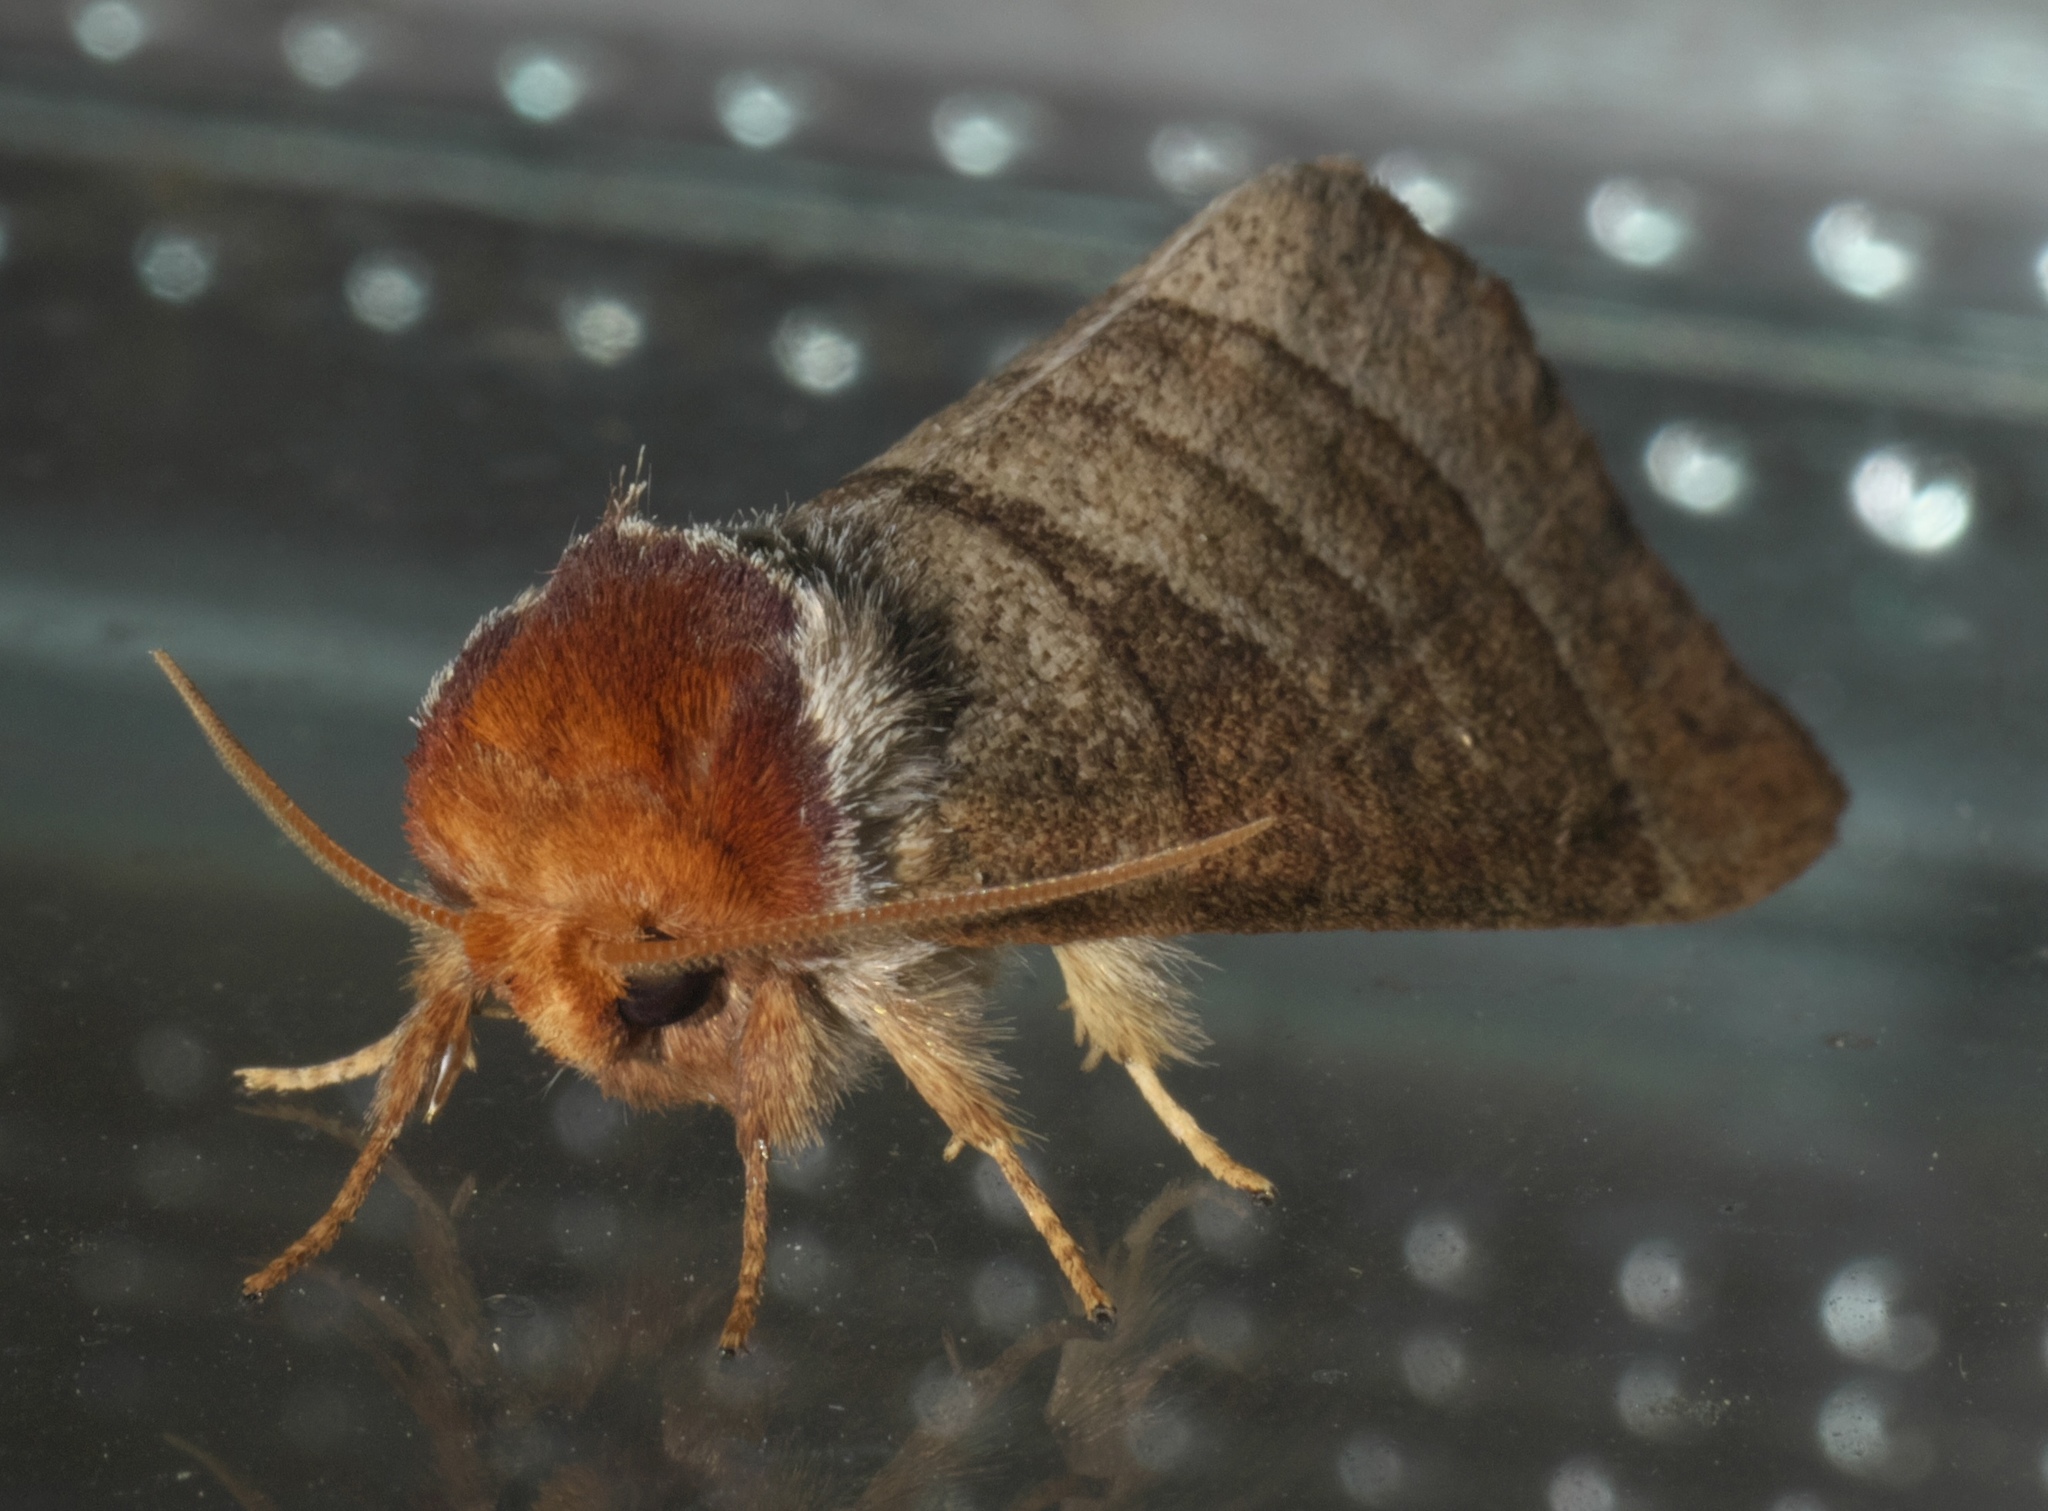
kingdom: Animalia
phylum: Arthropoda
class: Insecta
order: Lepidoptera
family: Notodontidae
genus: Datana
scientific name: Datana integerrima
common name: Walnut caterpillar
